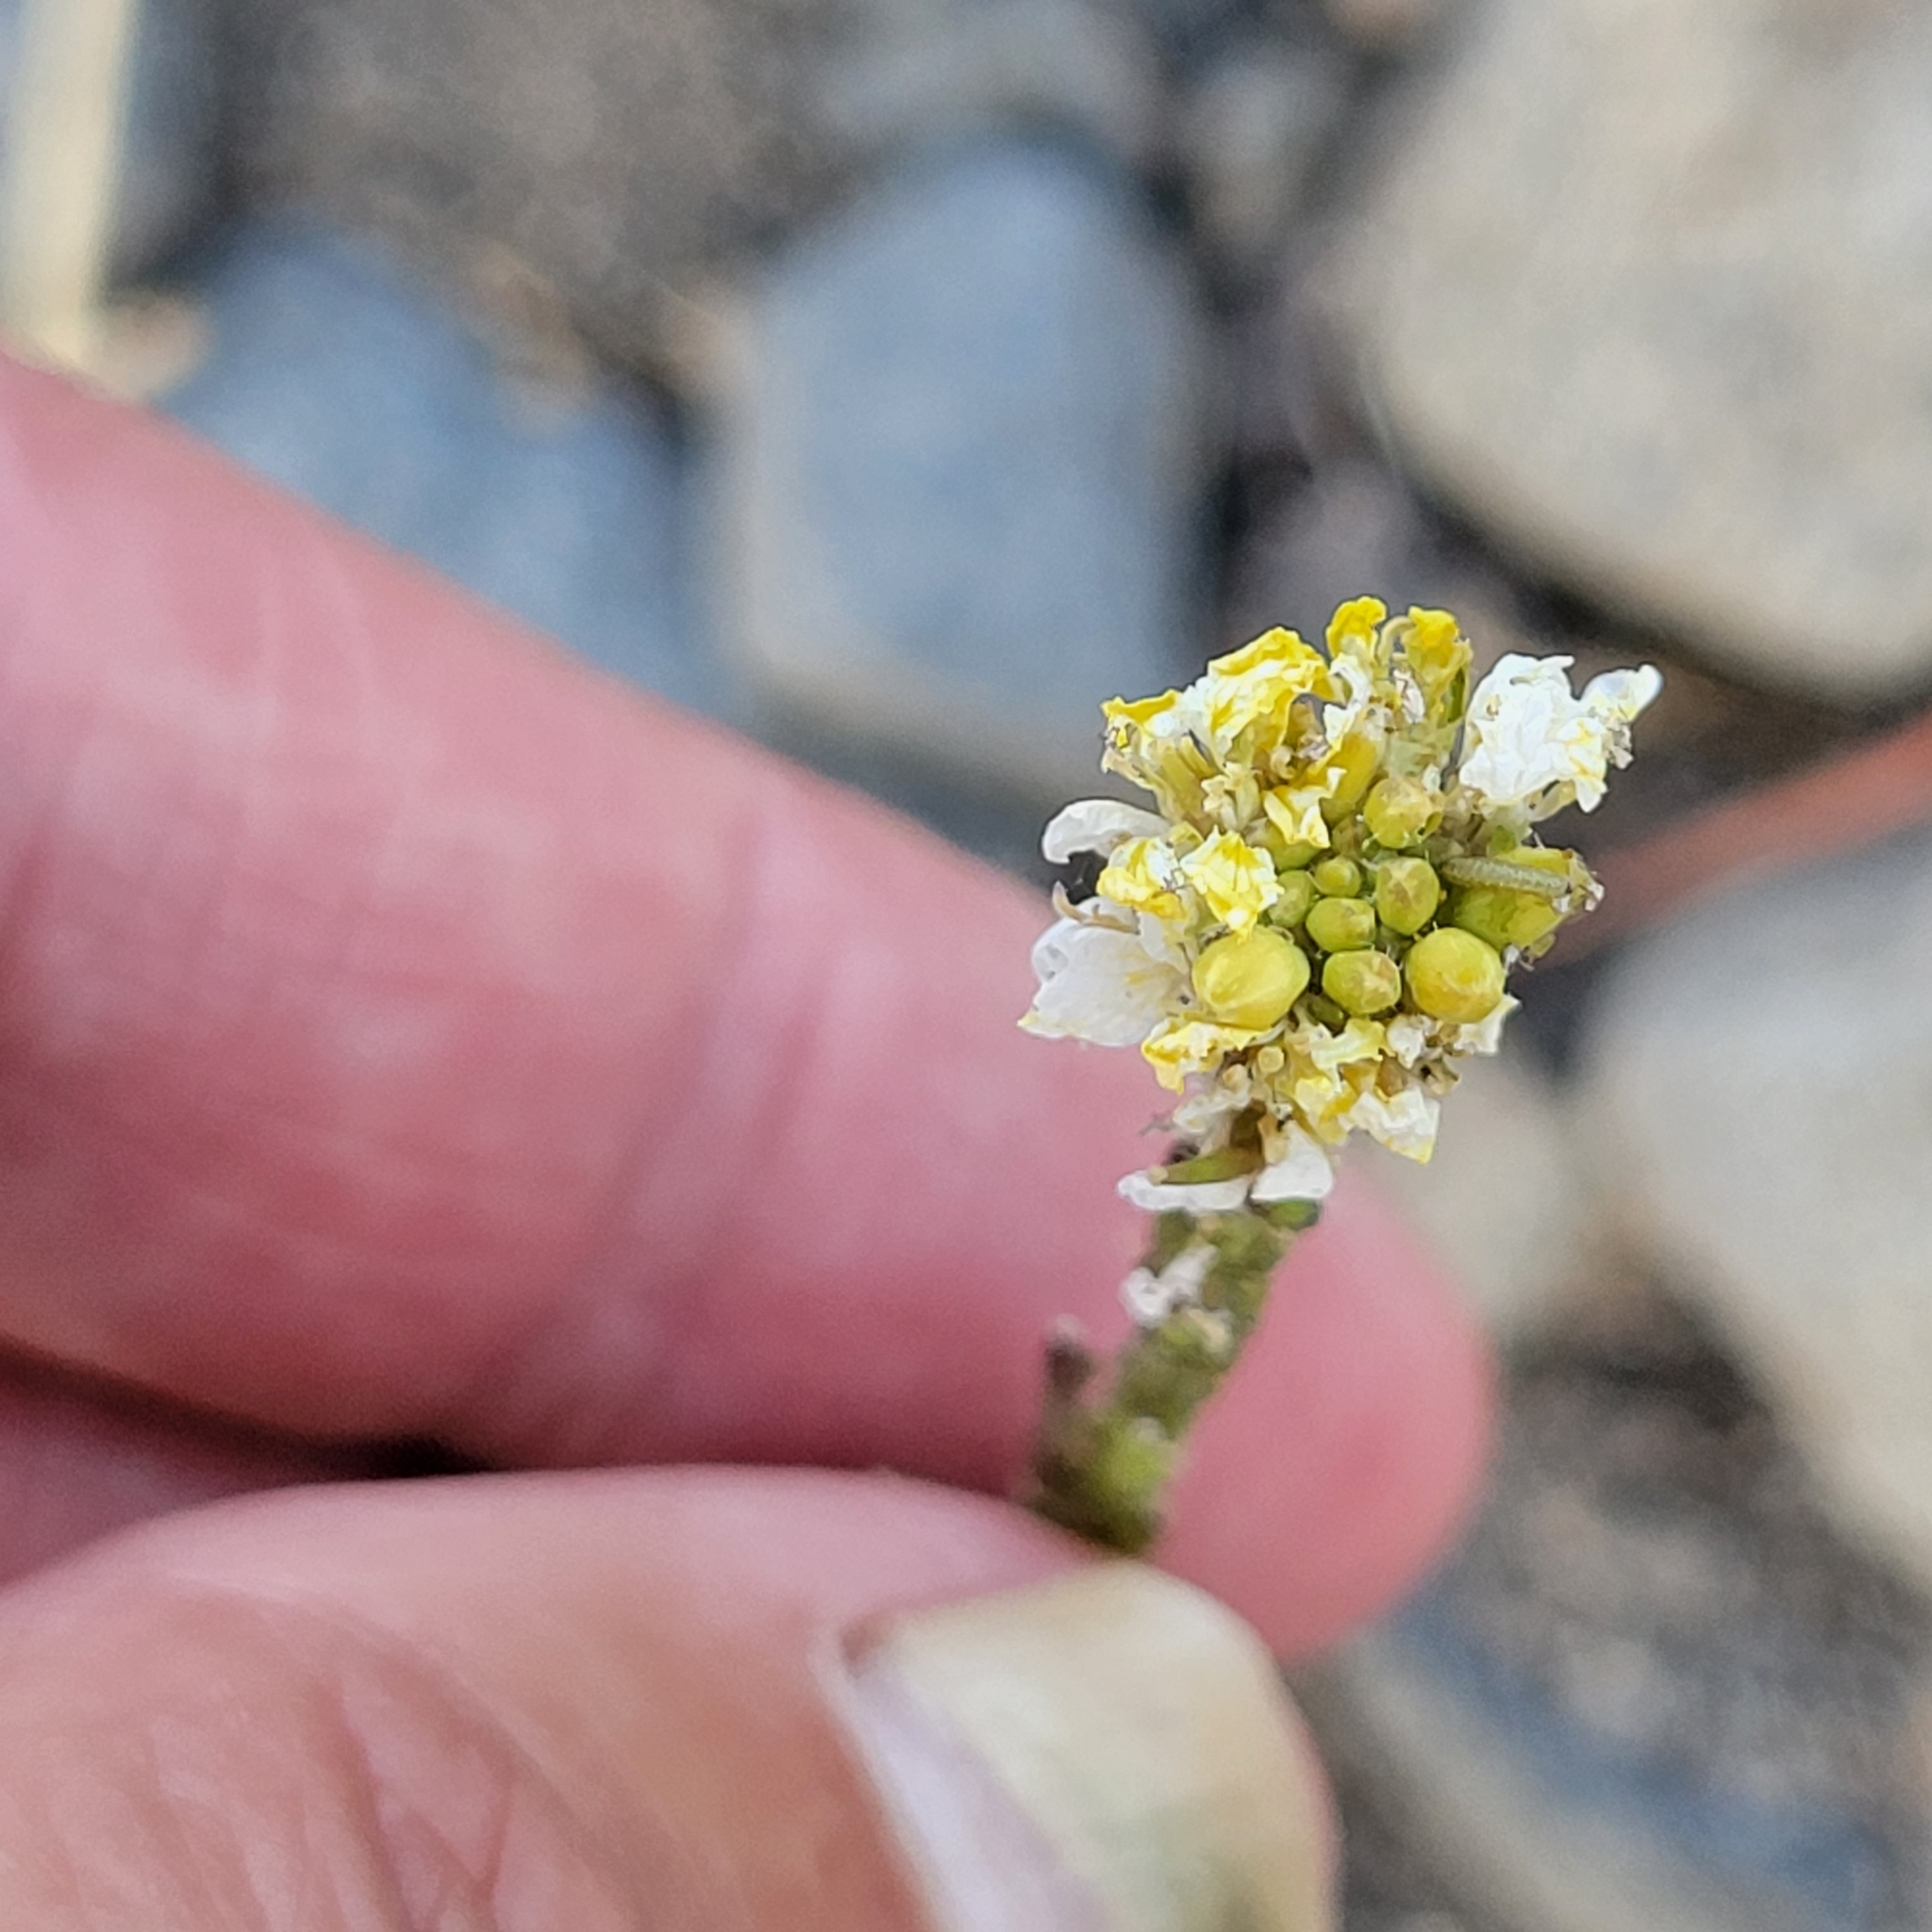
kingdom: Plantae
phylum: Tracheophyta
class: Magnoliopsida
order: Brassicales
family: Brassicaceae
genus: Hirschfeldia
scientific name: Hirschfeldia incana
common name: Hoary mustard
